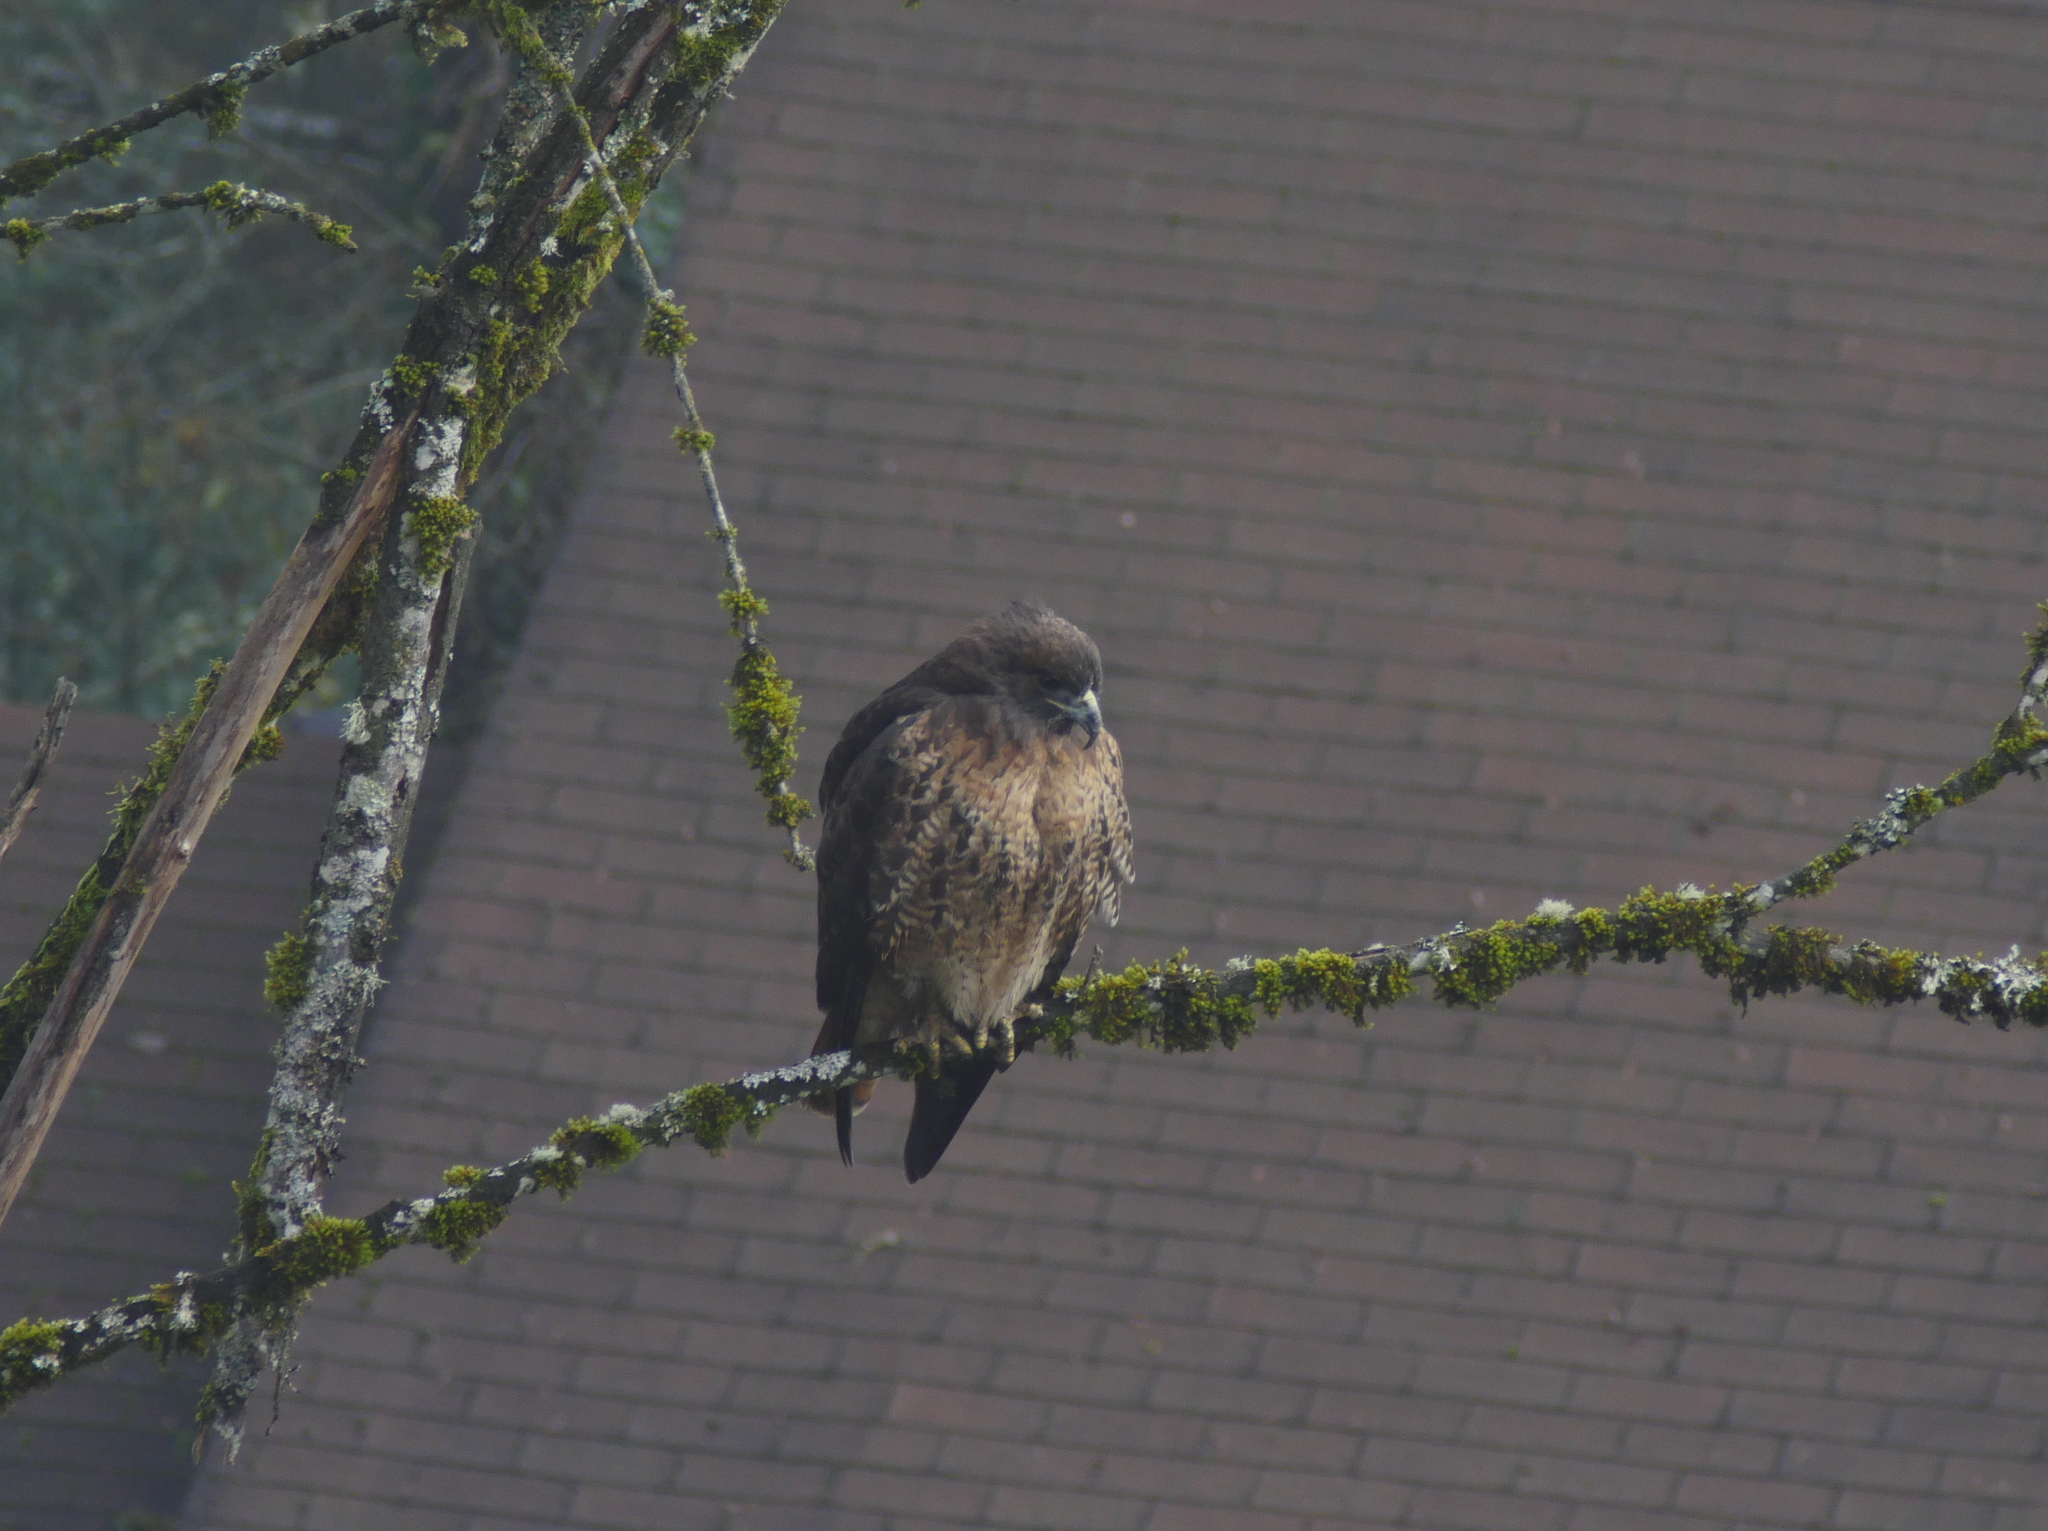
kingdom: Animalia
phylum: Chordata
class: Aves
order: Accipitriformes
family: Accipitridae
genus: Buteo
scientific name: Buteo jamaicensis
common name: Red-tailed hawk
